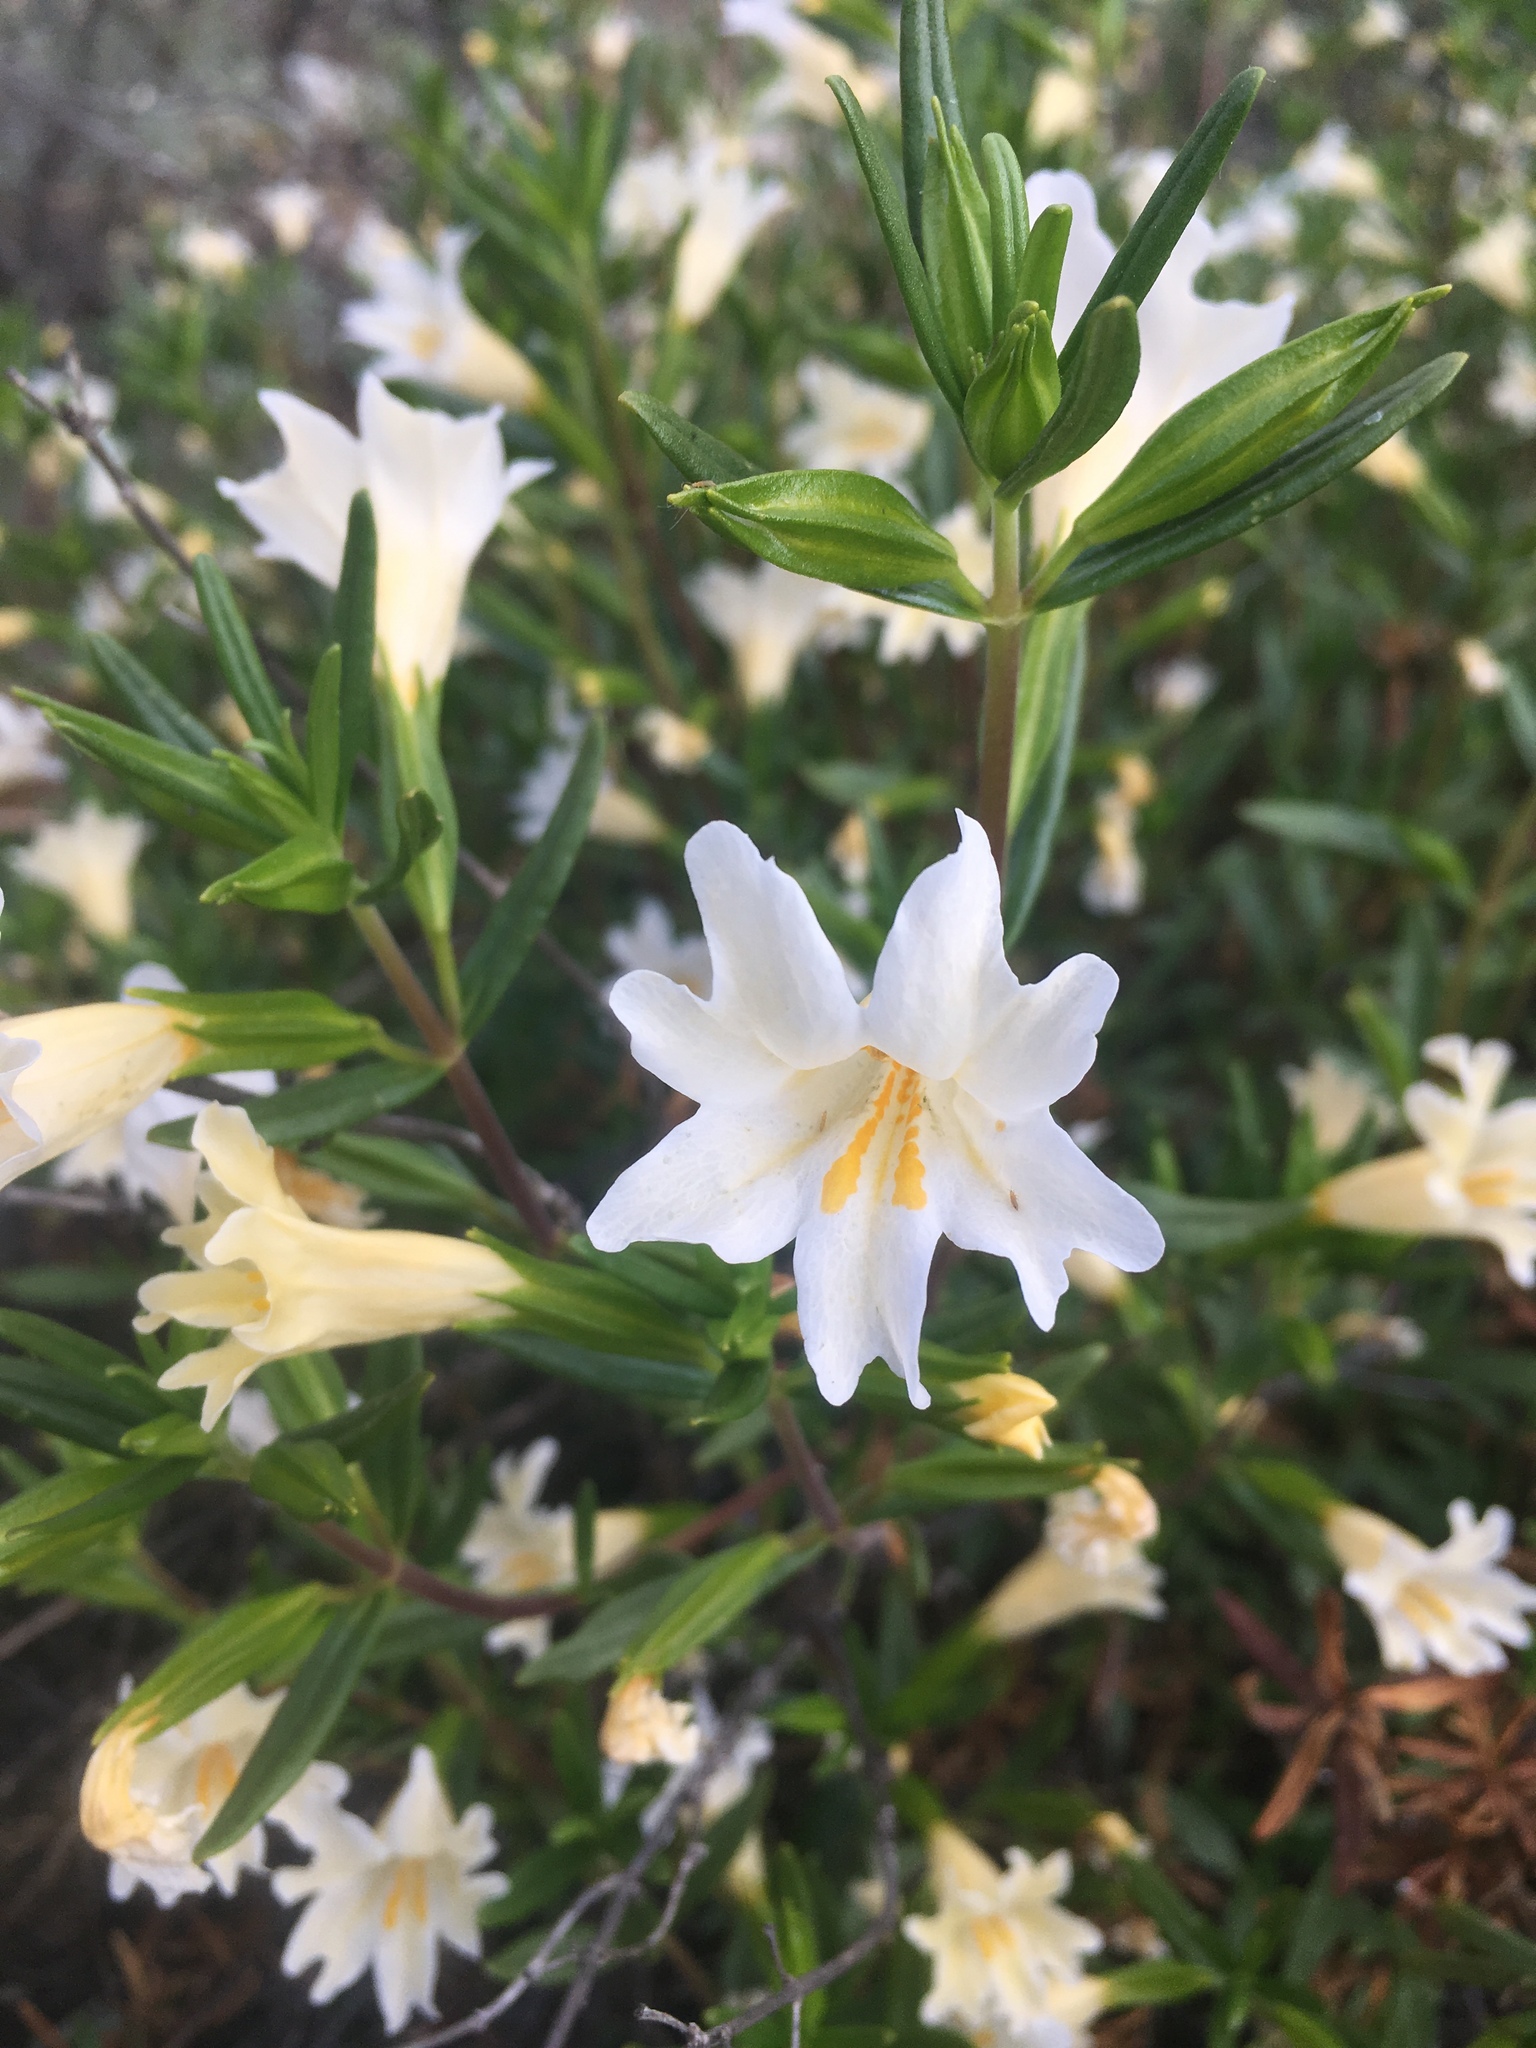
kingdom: Plantae
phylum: Tracheophyta
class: Magnoliopsida
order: Lamiales
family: Phrymaceae
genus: Diplacus
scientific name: Diplacus linearis
